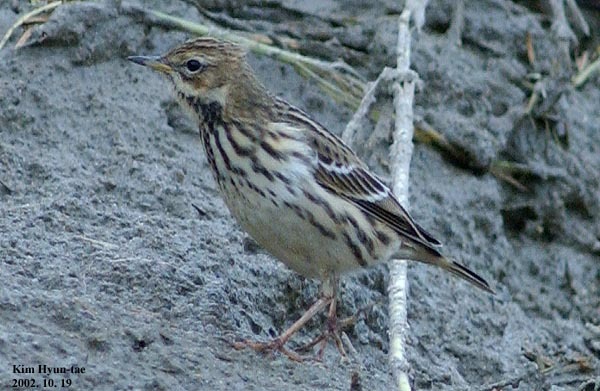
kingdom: Animalia
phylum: Chordata
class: Aves
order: Passeriformes
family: Motacillidae
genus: Anthus
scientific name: Anthus cervinus
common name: Red-throated pipit
